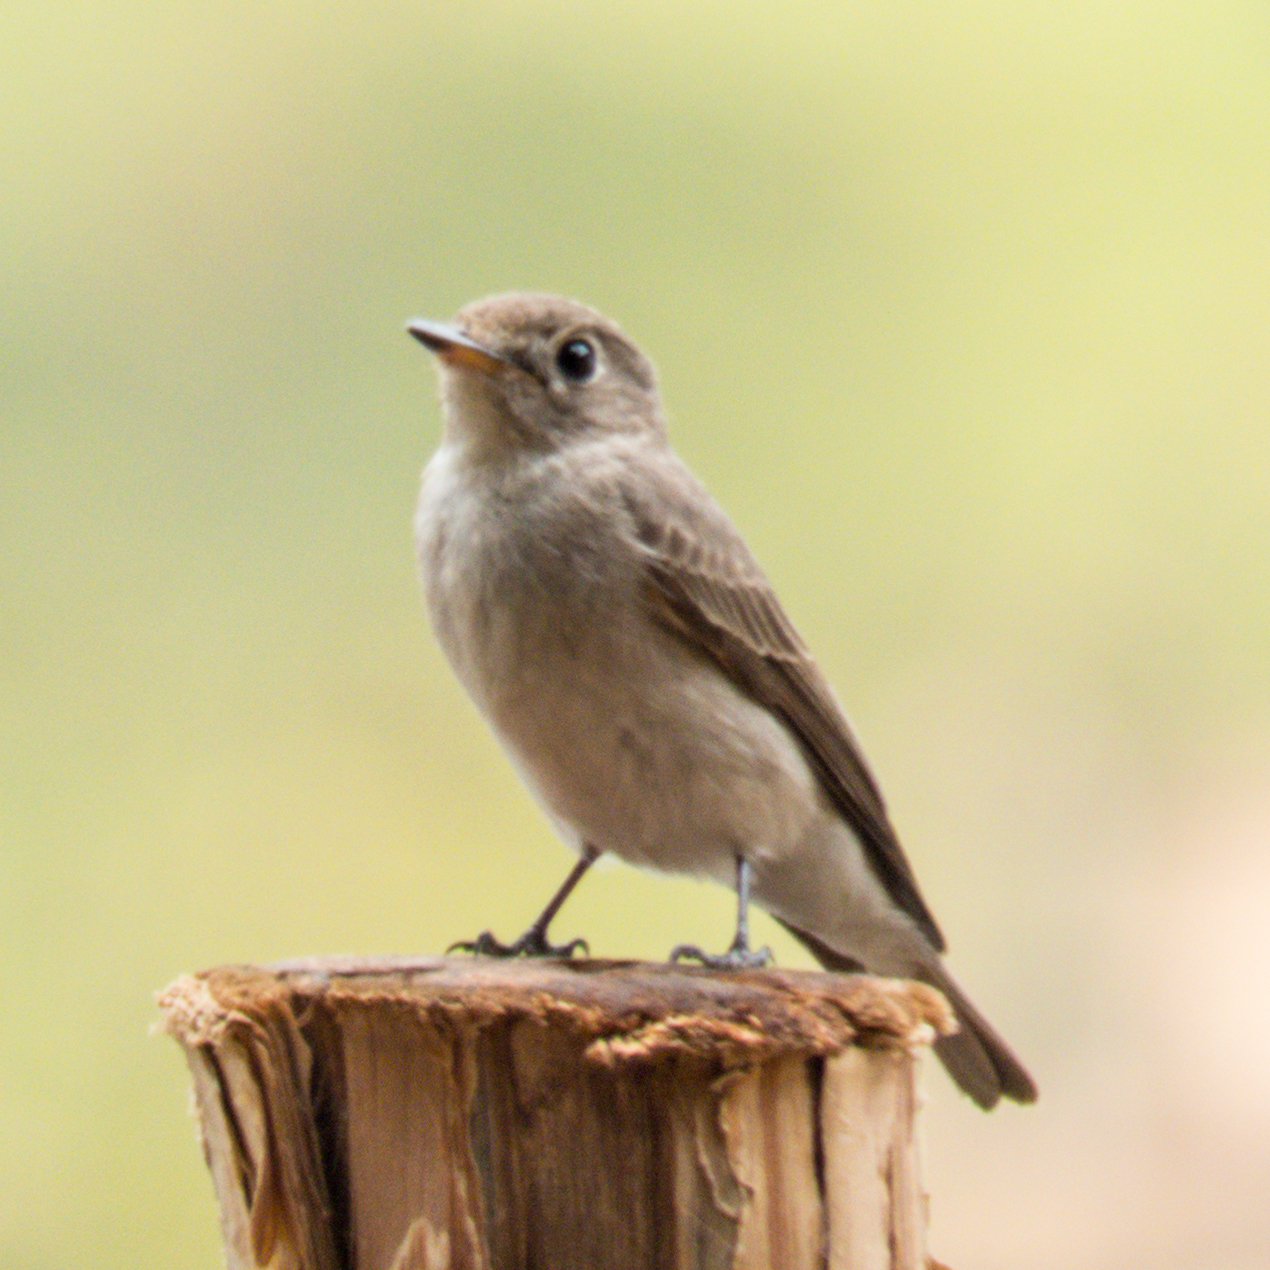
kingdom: Animalia
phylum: Chordata
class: Aves
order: Passeriformes
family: Muscicapidae
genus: Muscicapa
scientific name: Muscicapa latirostris
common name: Asian brown flycatcher
